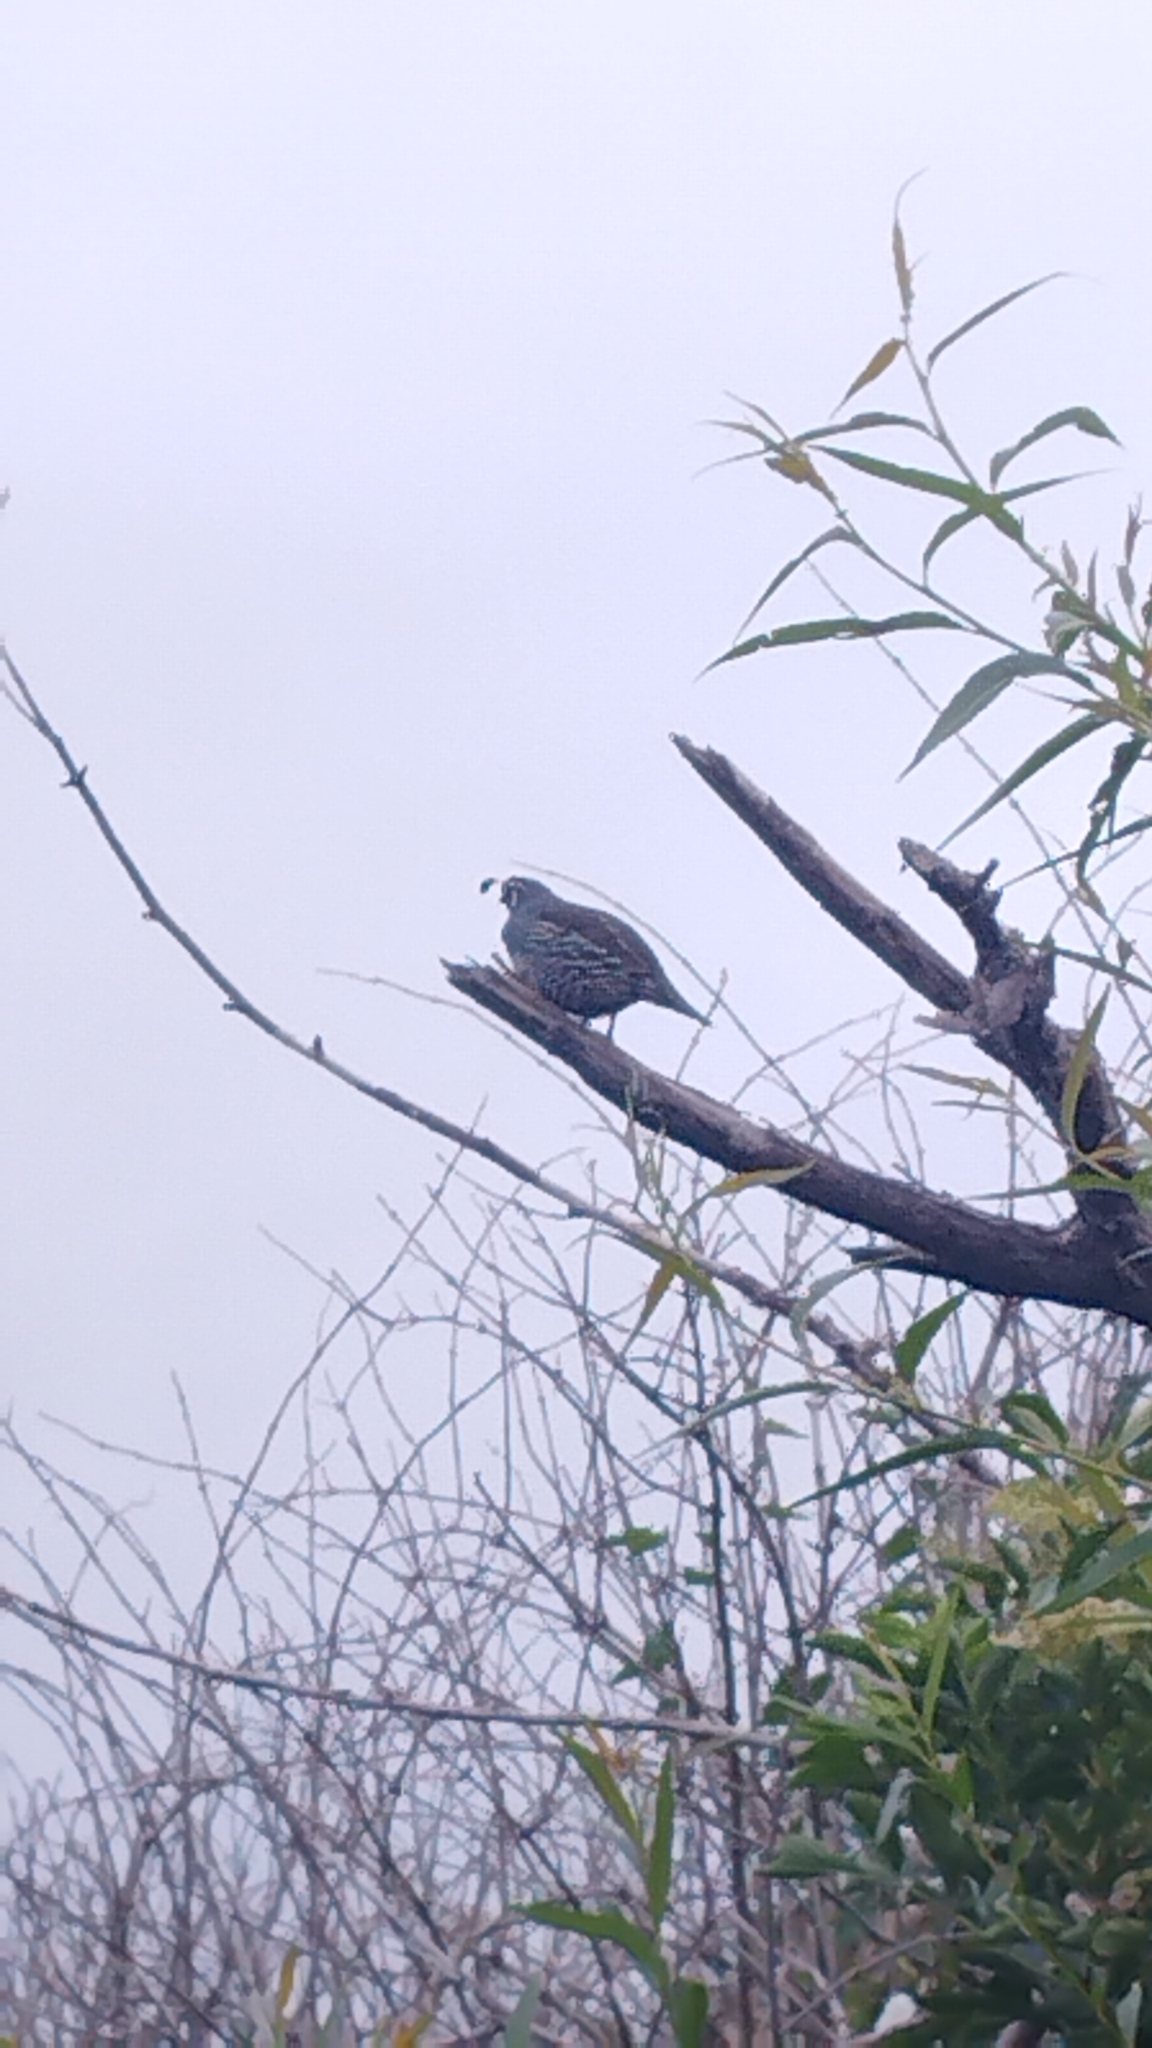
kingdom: Animalia
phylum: Chordata
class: Aves
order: Galliformes
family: Odontophoridae
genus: Callipepla
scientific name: Callipepla californica
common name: California quail
